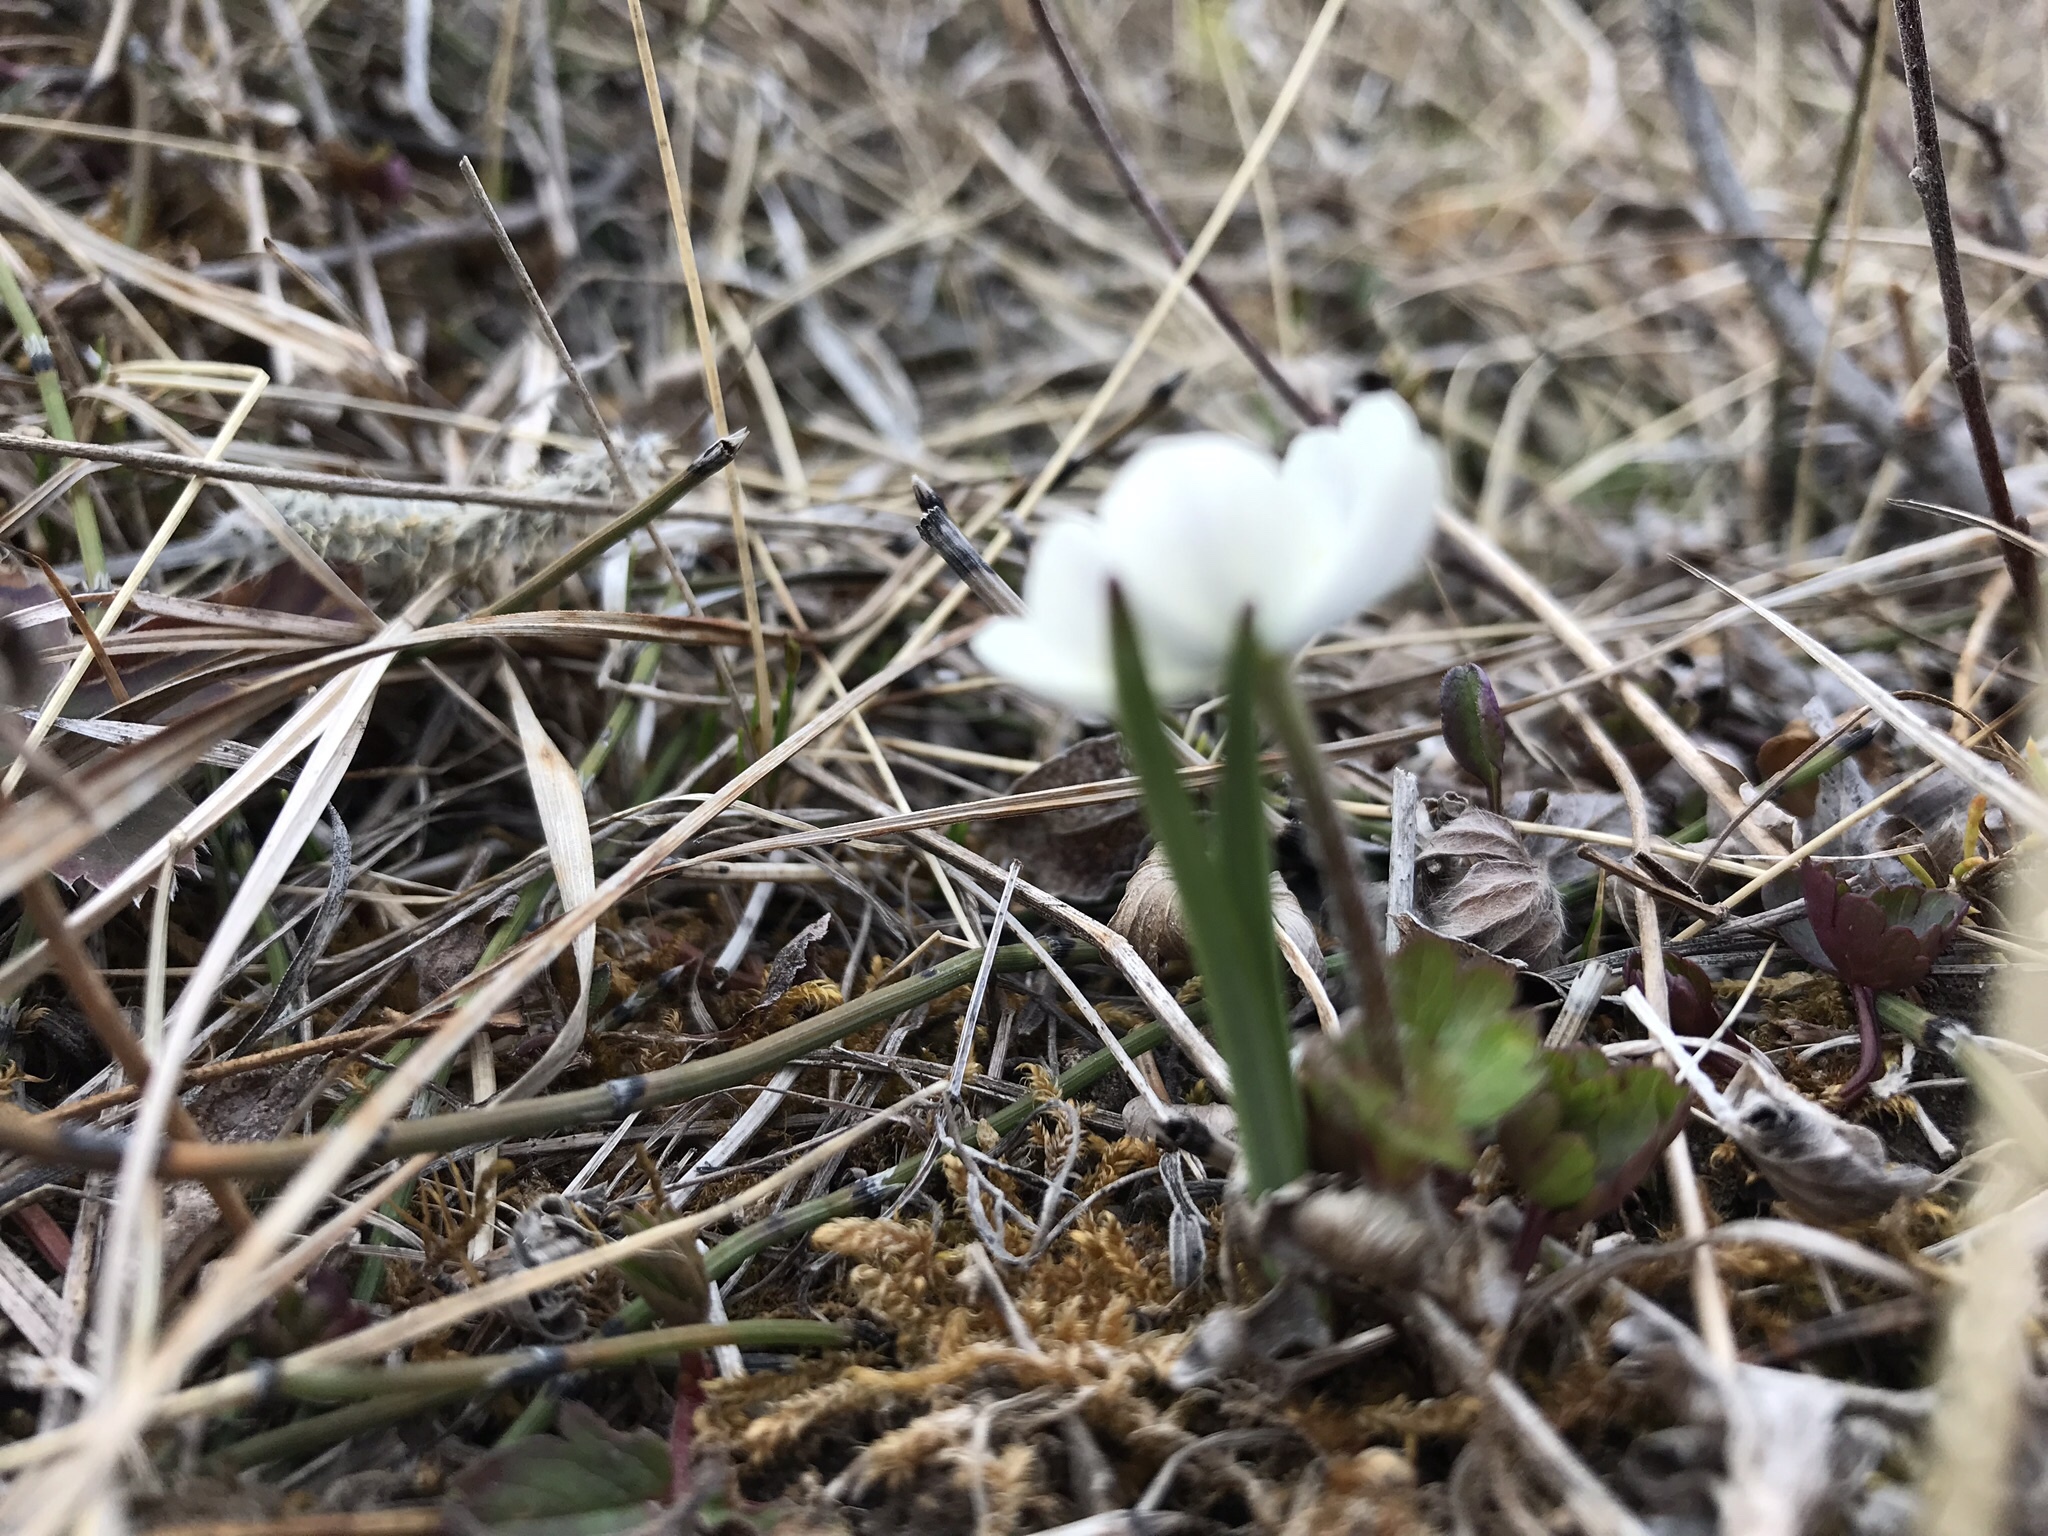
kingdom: Plantae
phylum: Tracheophyta
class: Magnoliopsida
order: Ranunculales
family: Ranunculaceae
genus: Anemone
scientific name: Anemone parviflora
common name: Northern anemone
